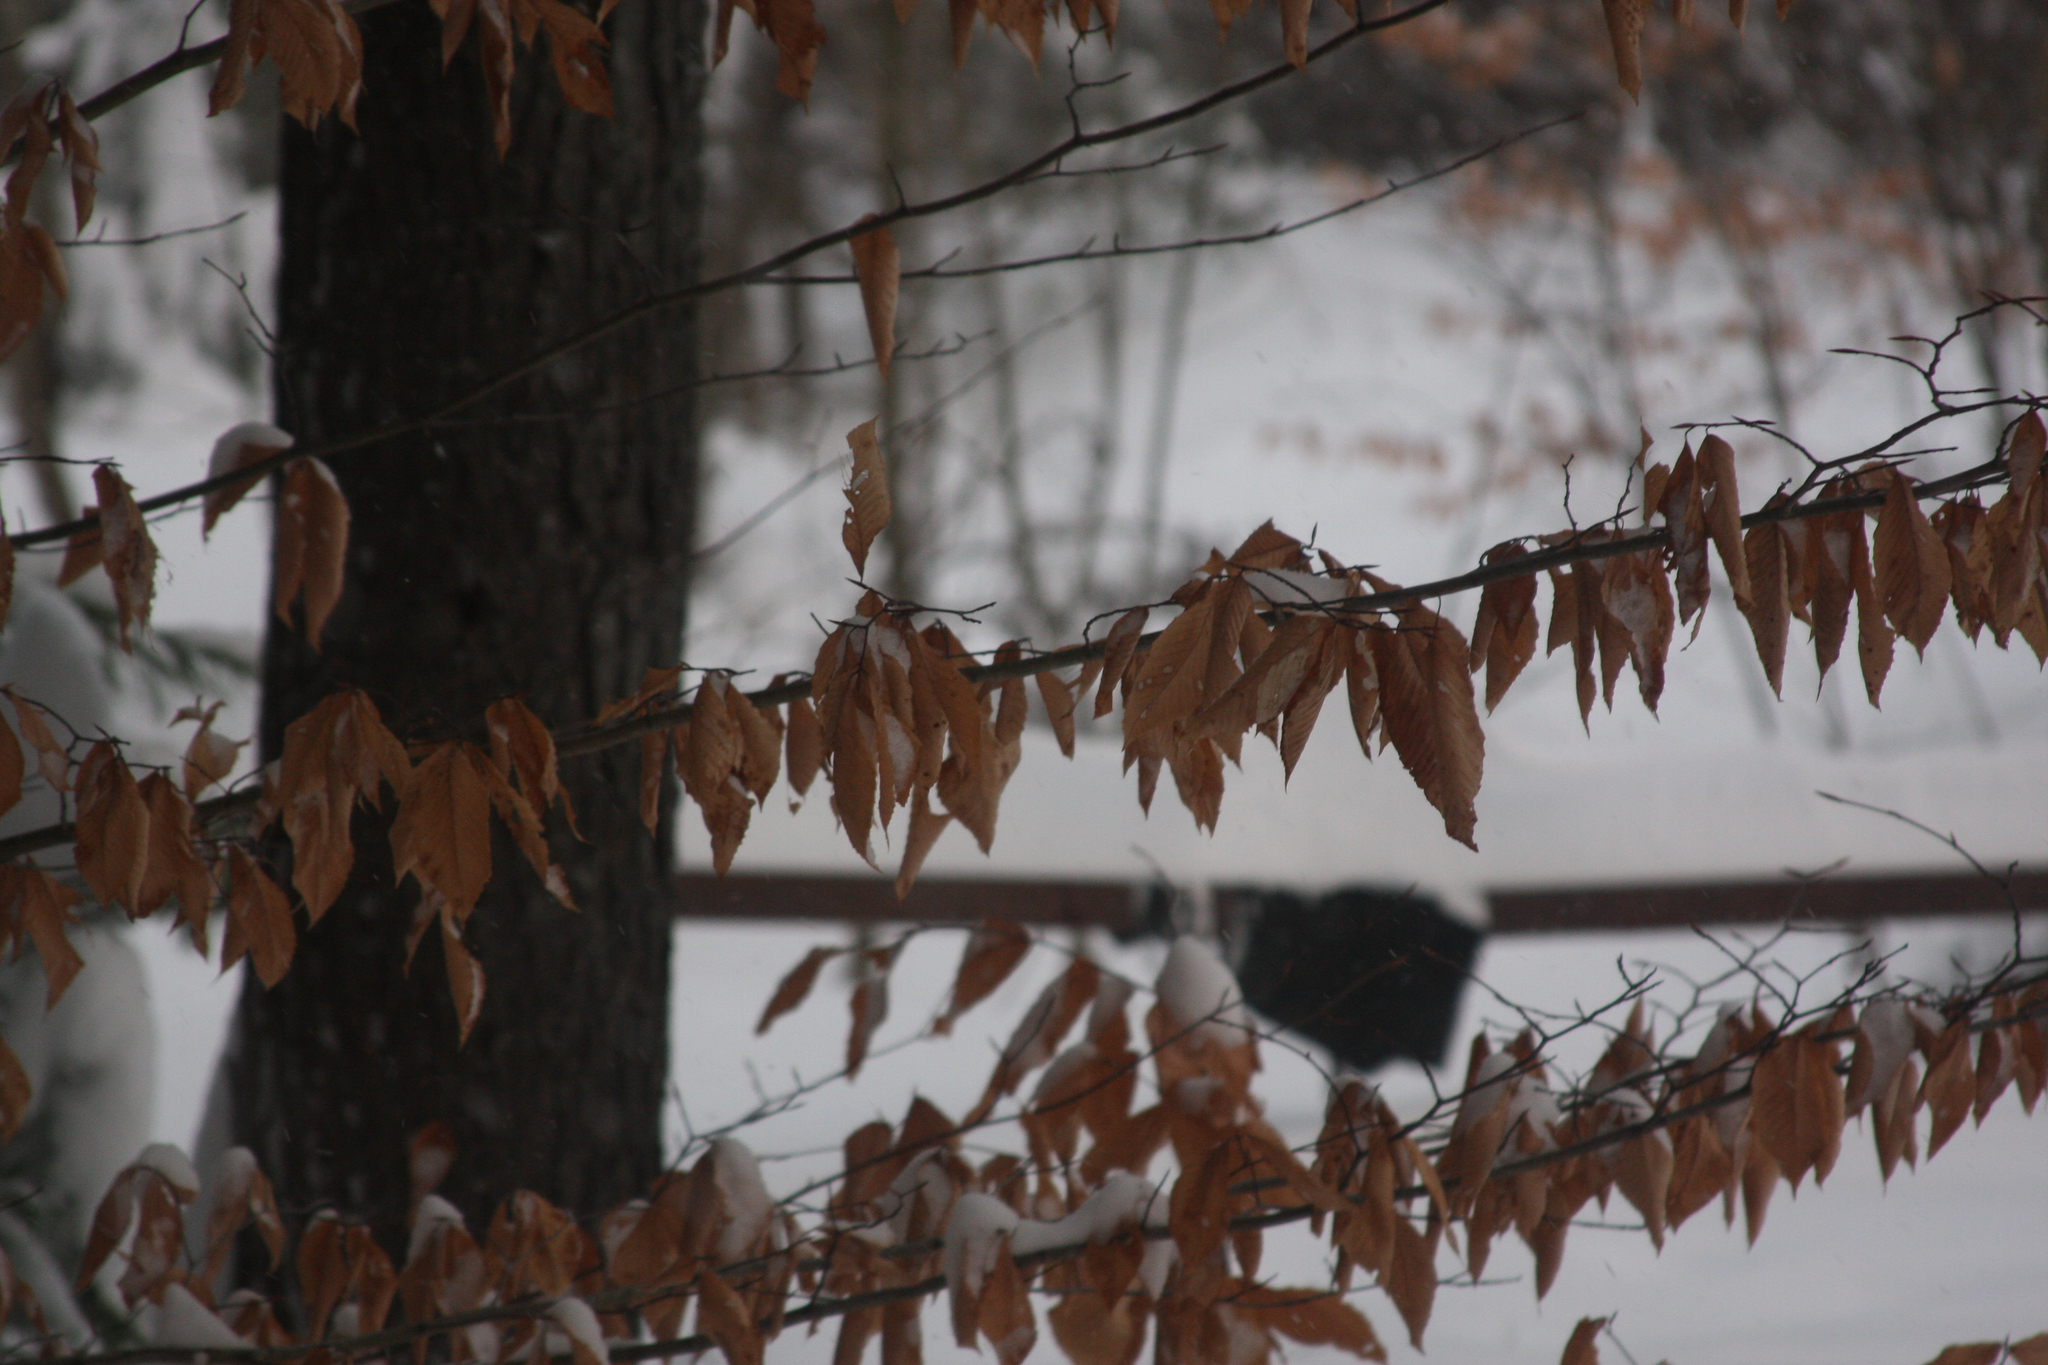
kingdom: Plantae
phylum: Tracheophyta
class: Magnoliopsida
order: Fagales
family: Fagaceae
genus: Fagus
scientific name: Fagus grandifolia
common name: American beech
